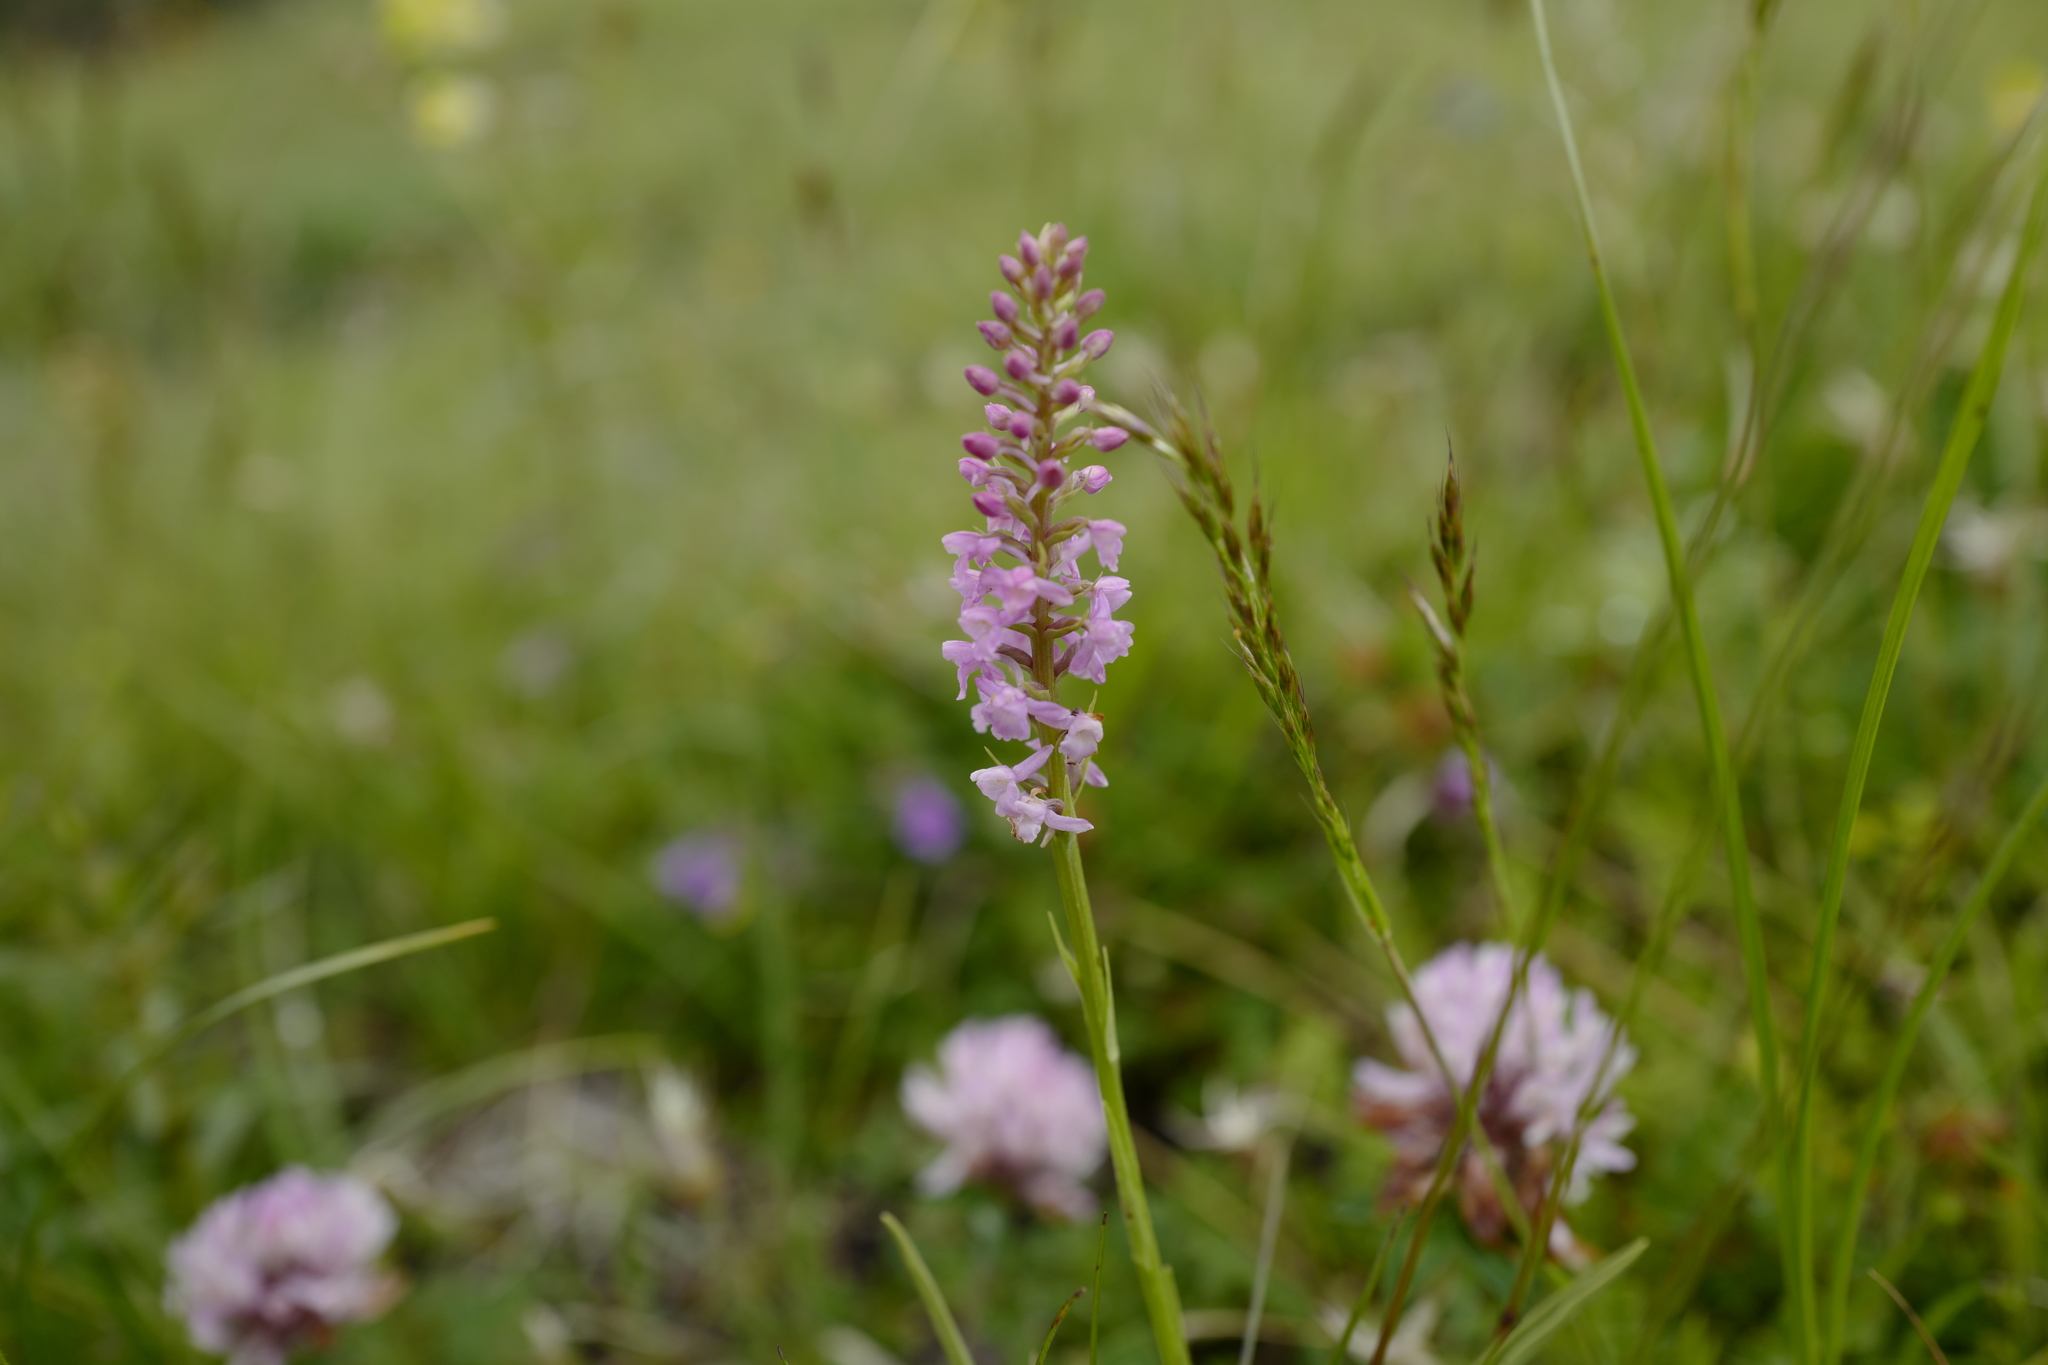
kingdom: Plantae
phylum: Tracheophyta
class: Liliopsida
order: Asparagales
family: Orchidaceae
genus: Gymnadenia
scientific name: Gymnadenia odoratissima
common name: Scented gymnadenia
